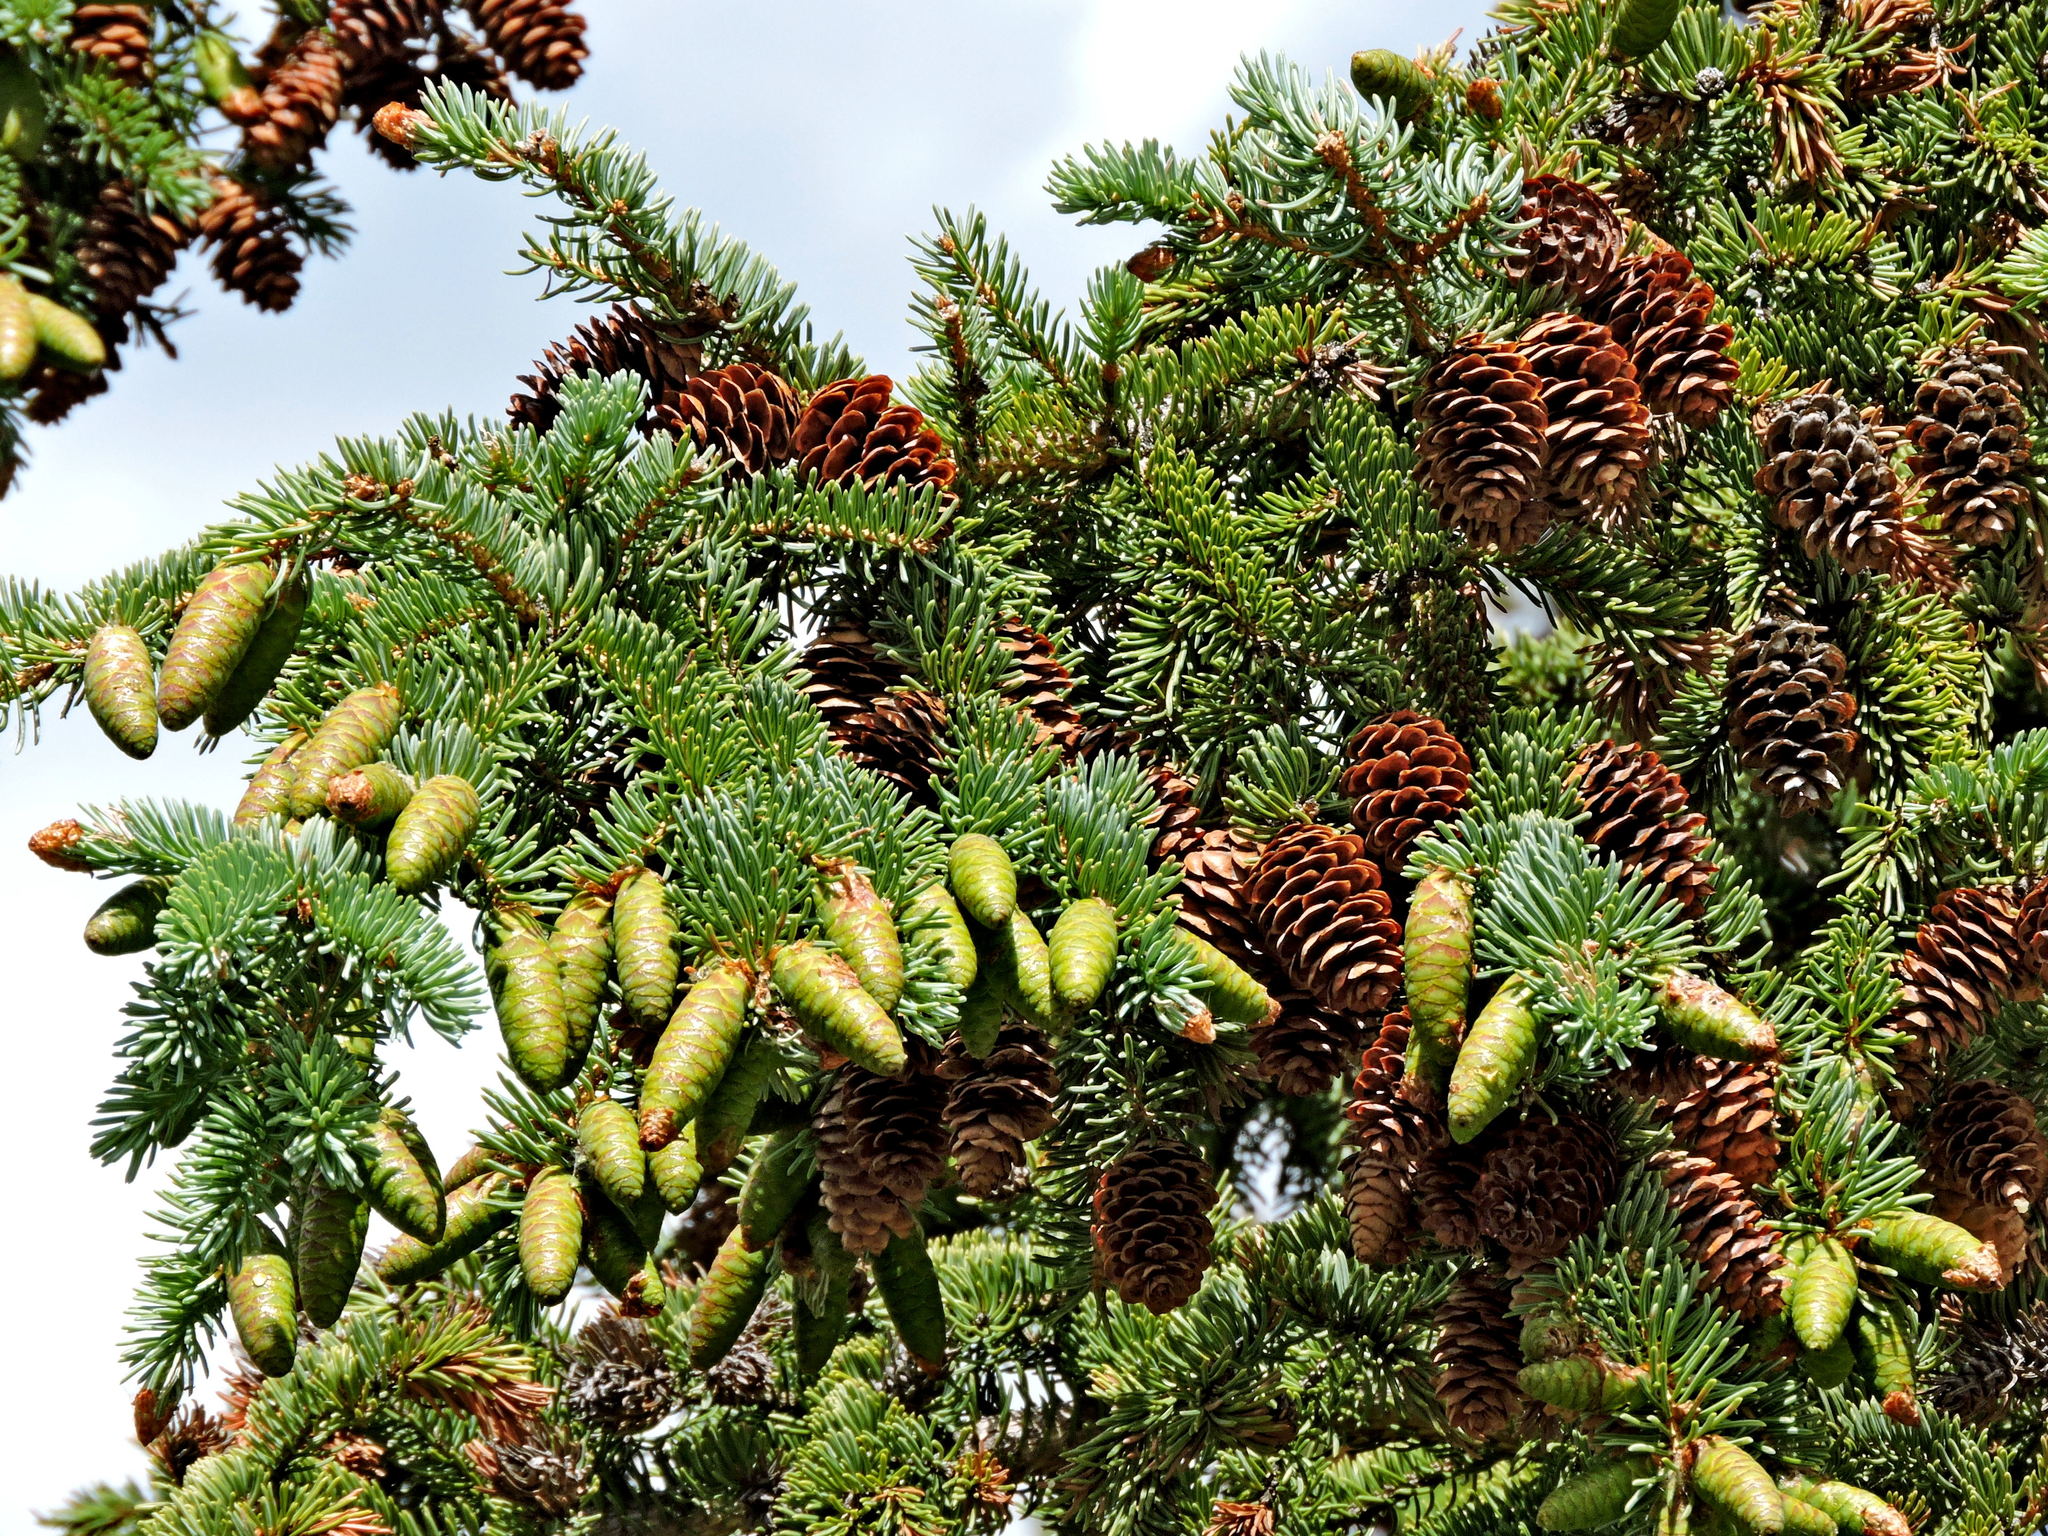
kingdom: Plantae
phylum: Tracheophyta
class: Pinopsida
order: Pinales
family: Pinaceae
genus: Picea
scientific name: Picea glauca
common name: White spruce
